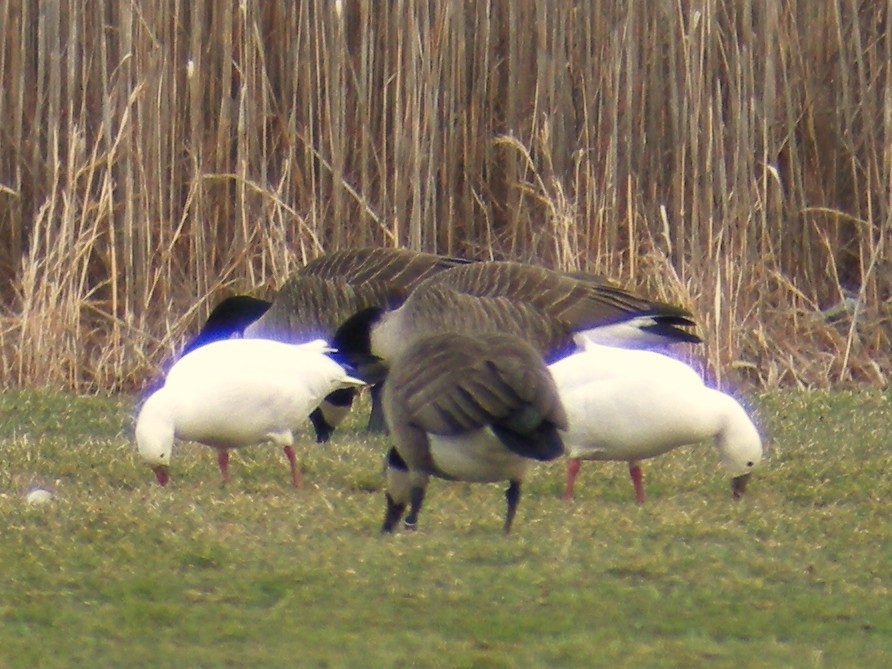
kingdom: Animalia
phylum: Chordata
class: Aves
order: Anseriformes
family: Anatidae
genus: Anser
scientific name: Anser rossii
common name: Ross's goose
